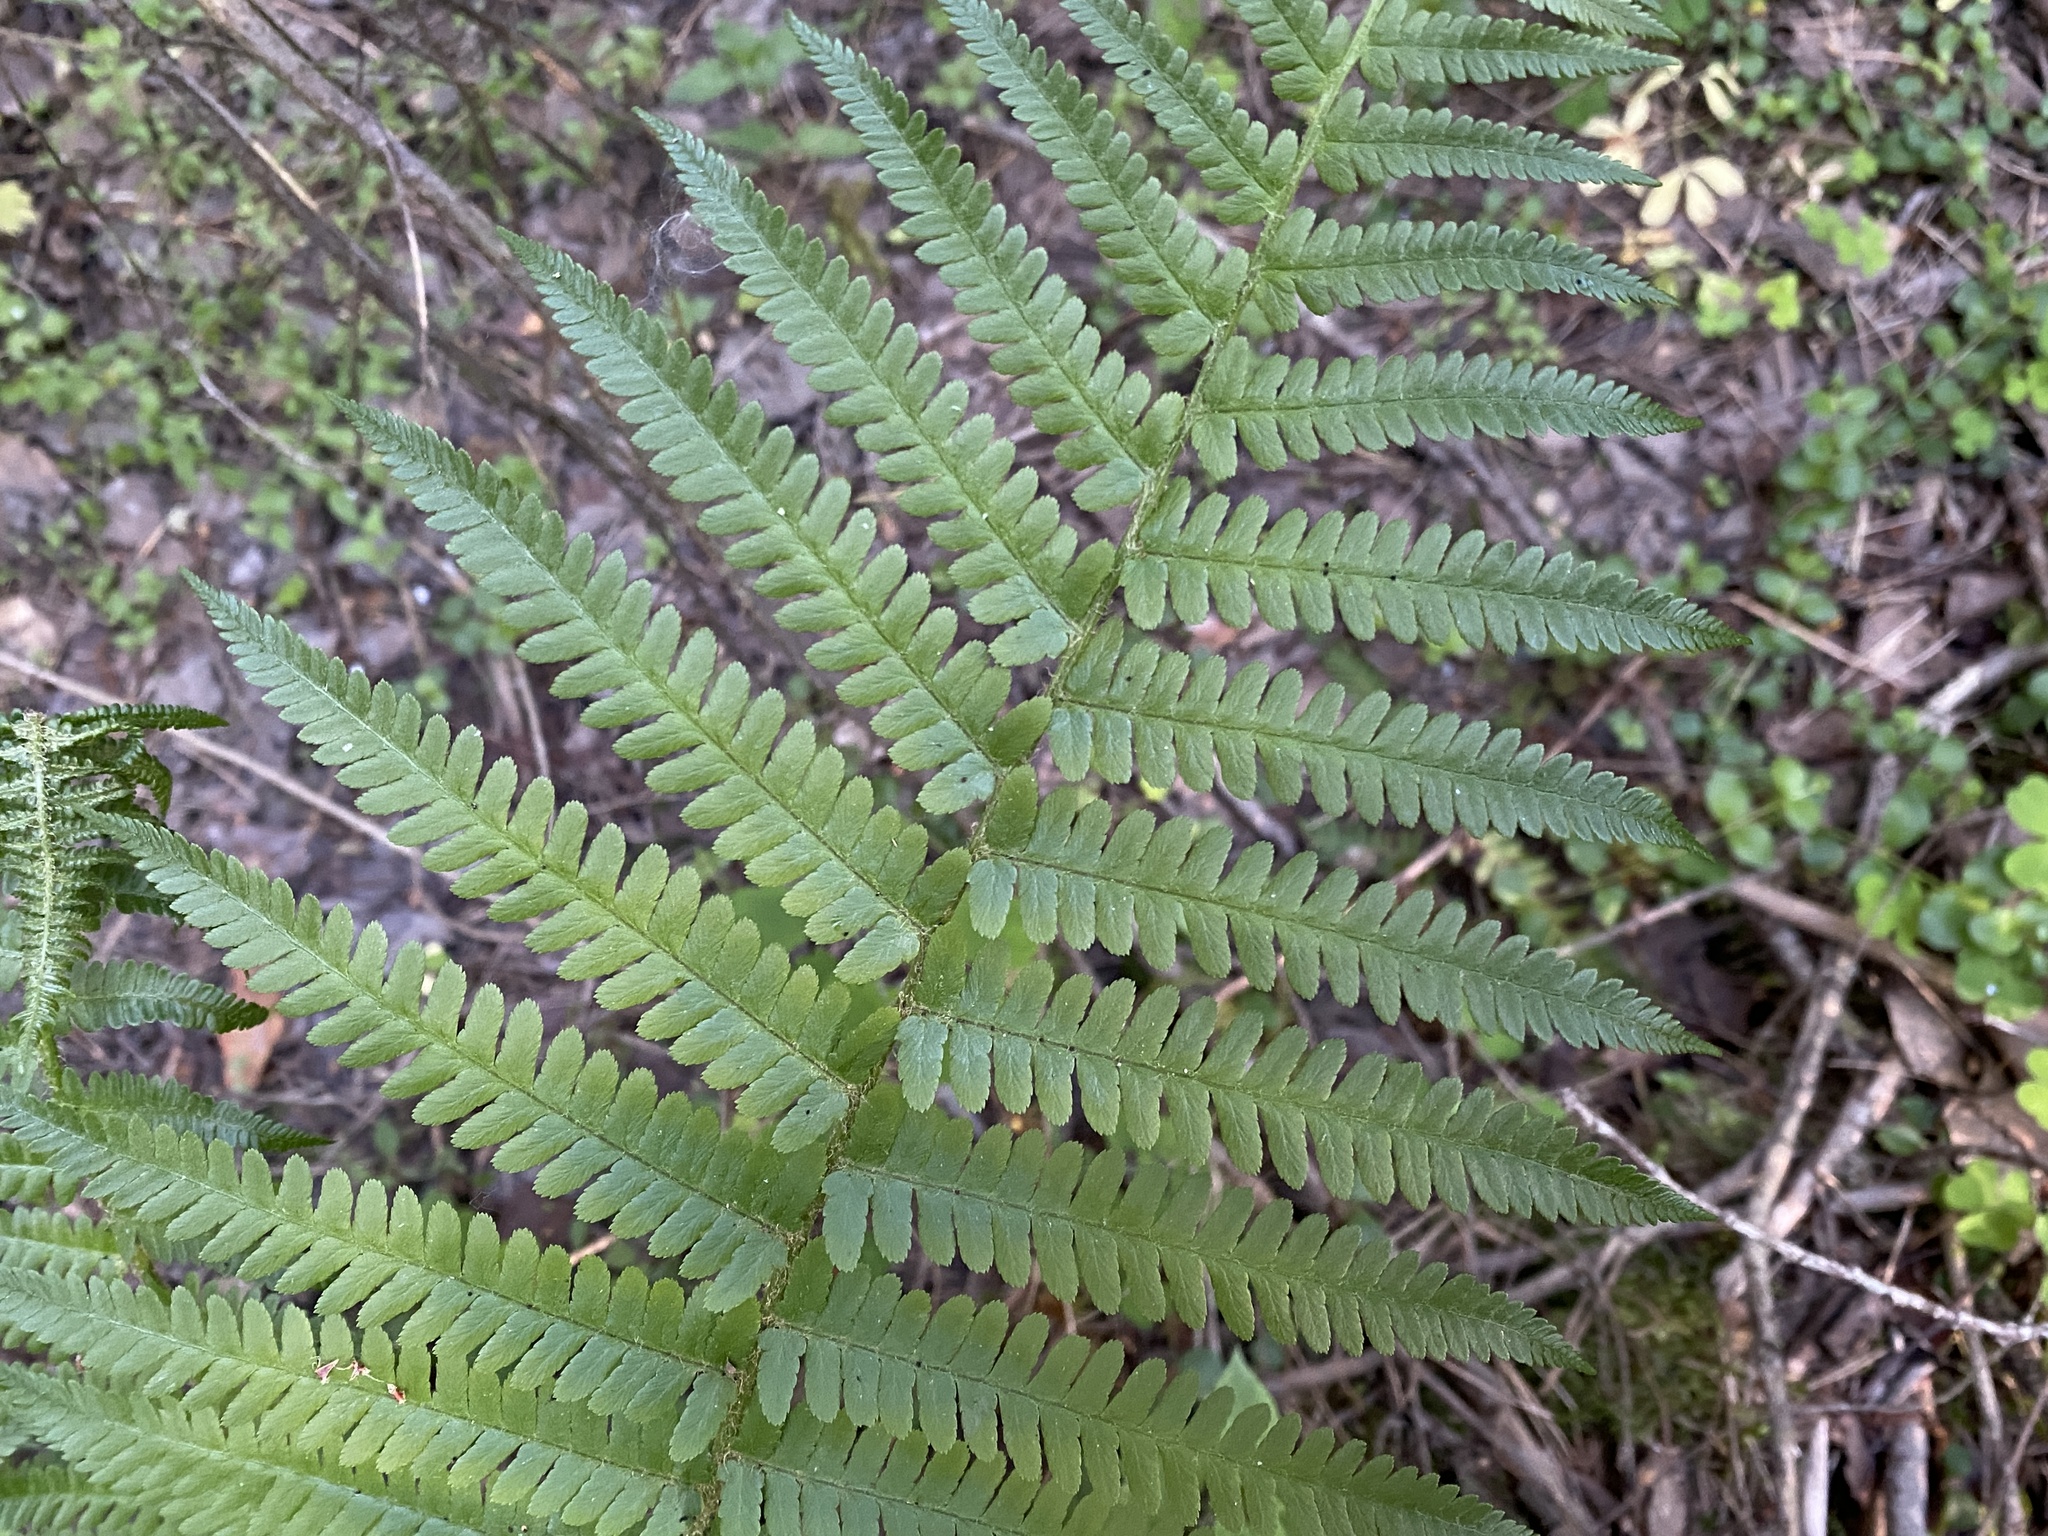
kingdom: Plantae
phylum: Tracheophyta
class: Polypodiopsida
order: Polypodiales
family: Dryopteridaceae
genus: Dryopteris
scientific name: Dryopteris filix-mas
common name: Male fern
